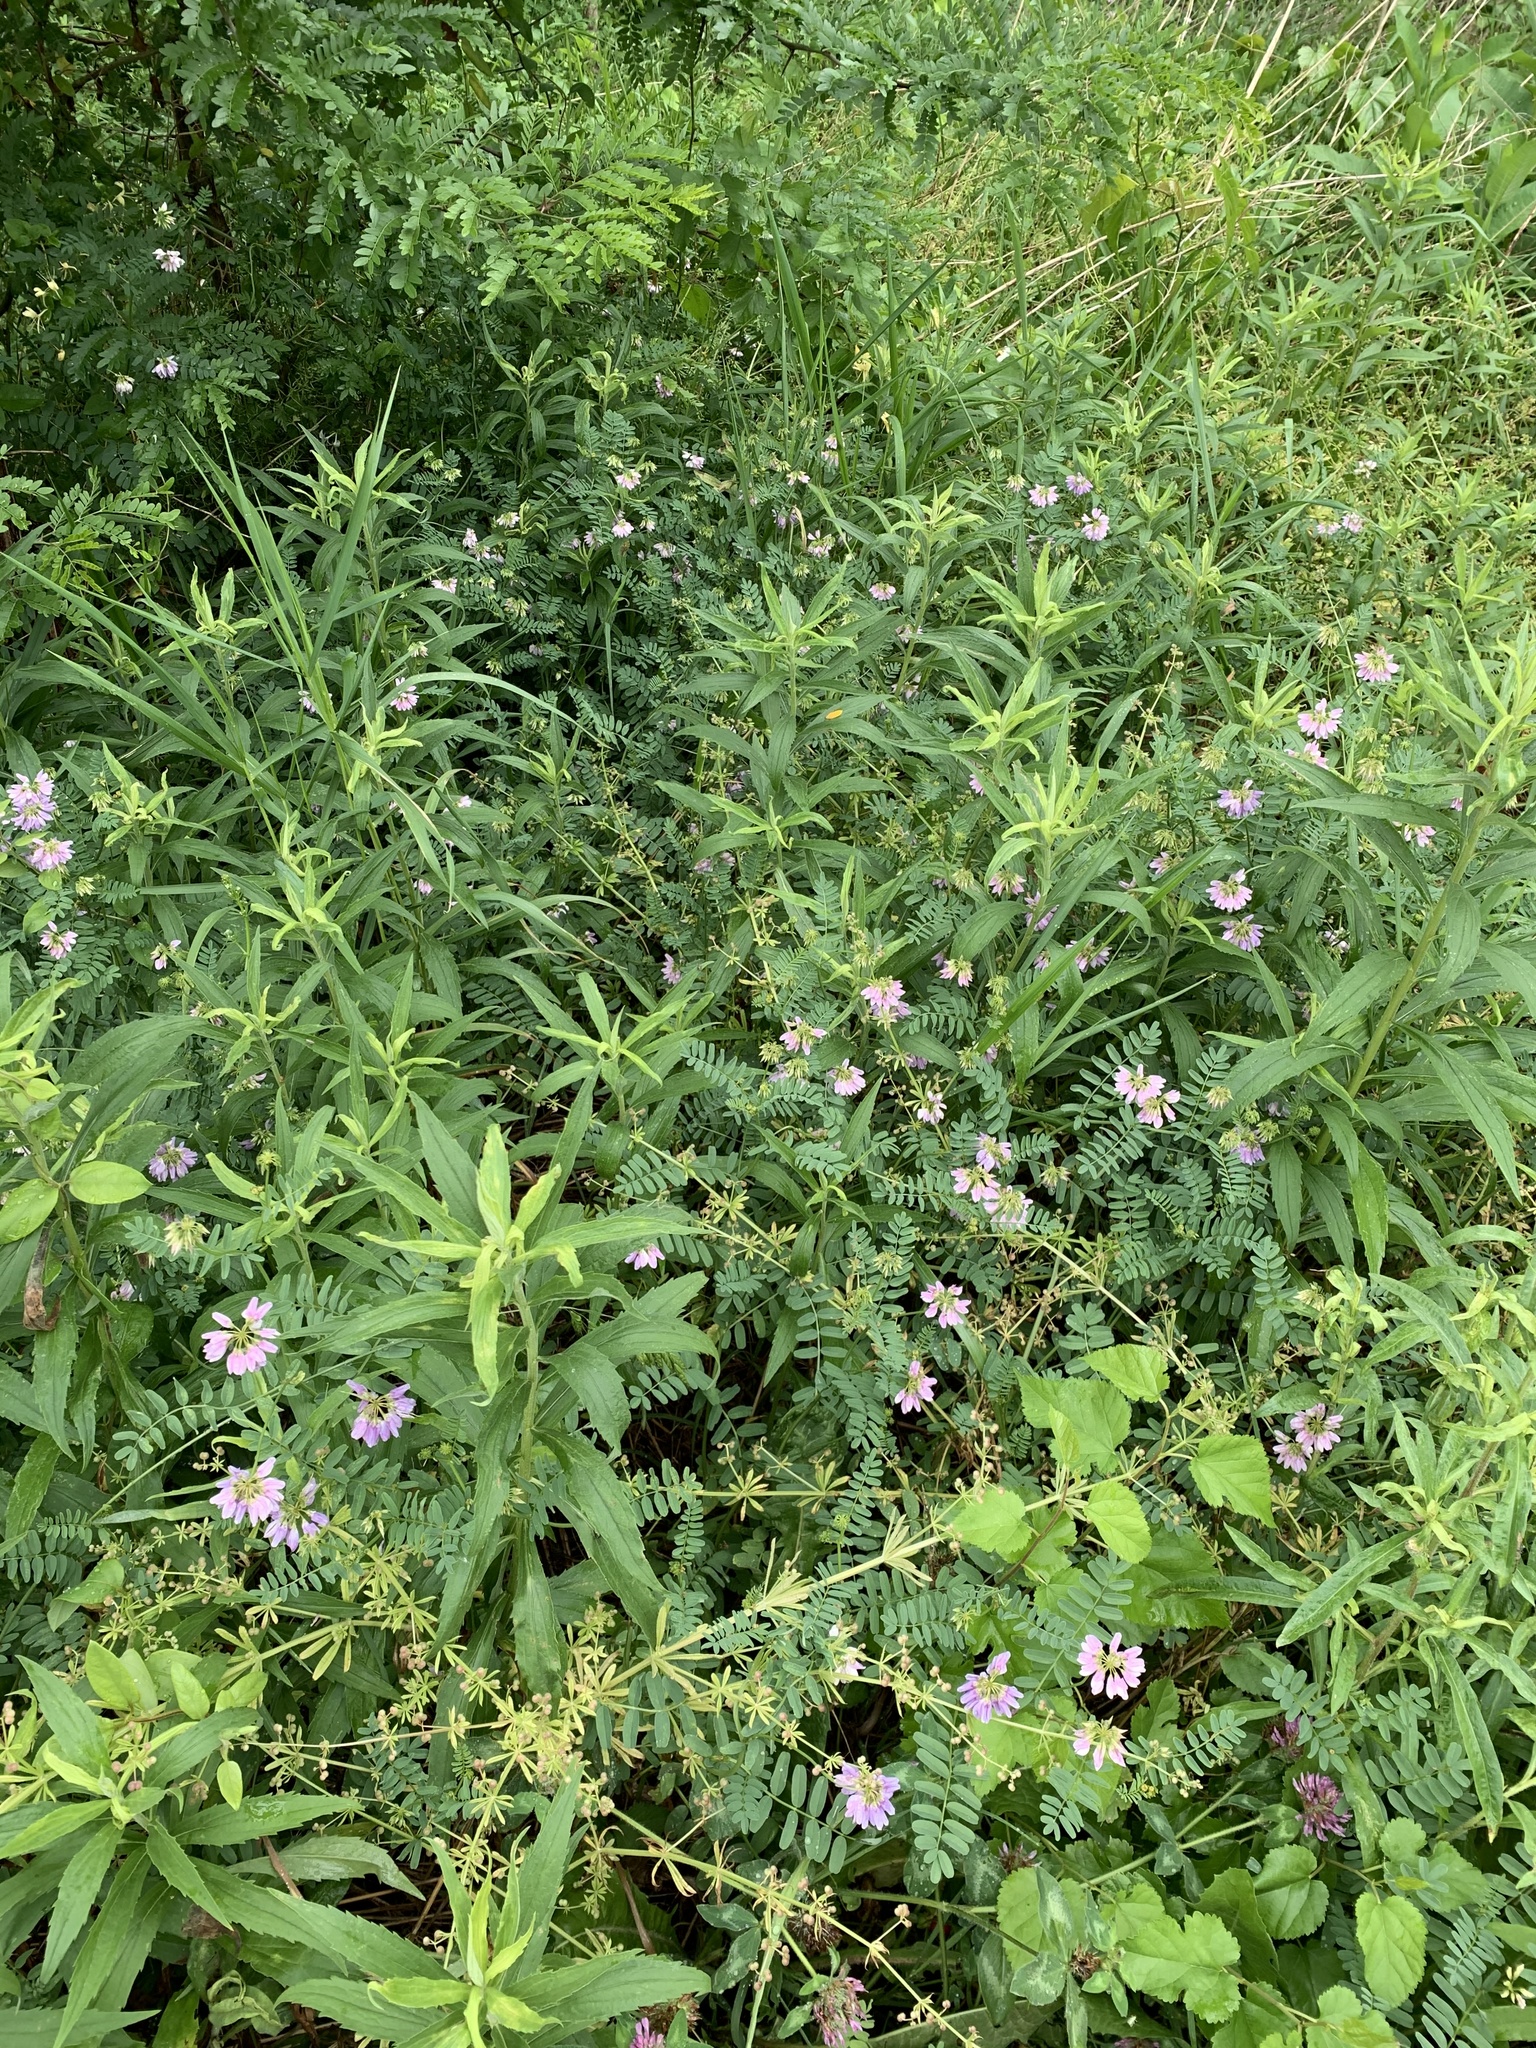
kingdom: Plantae
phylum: Tracheophyta
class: Magnoliopsida
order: Fabales
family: Fabaceae
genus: Coronilla
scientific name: Coronilla varia
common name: Crownvetch
